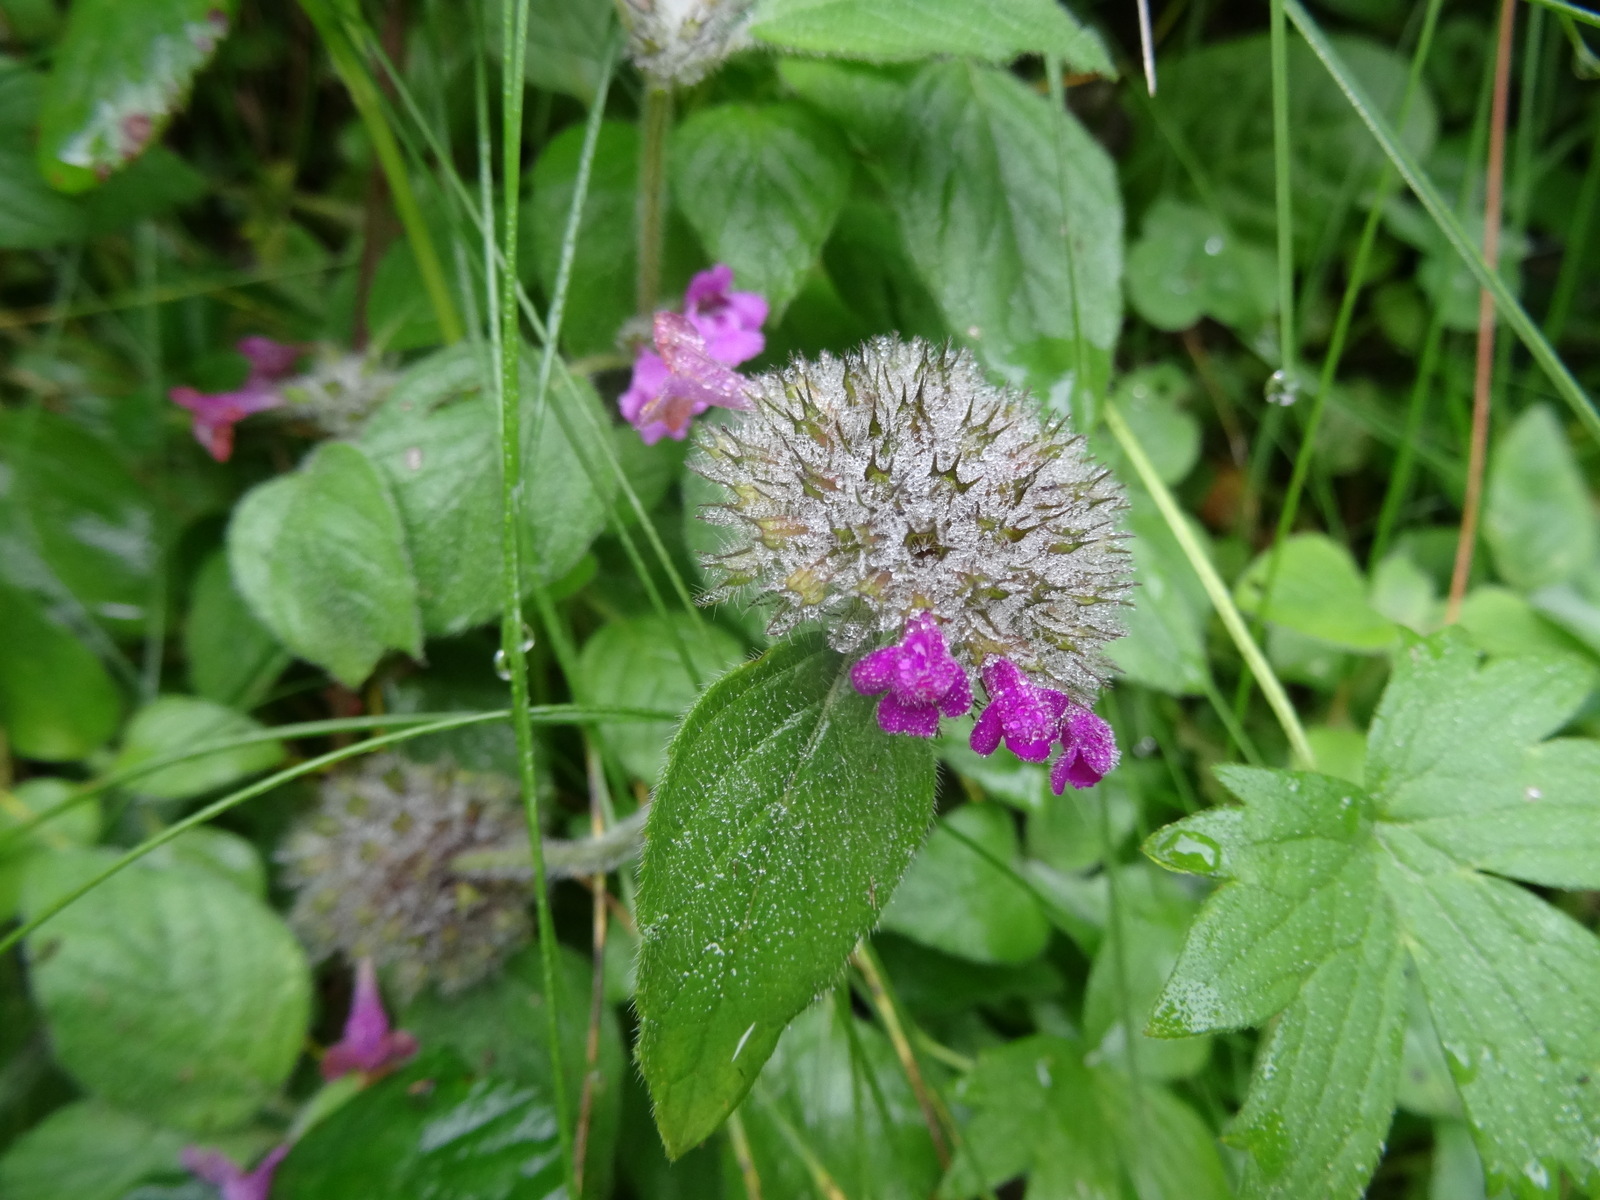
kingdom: Plantae
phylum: Tracheophyta
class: Magnoliopsida
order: Lamiales
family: Lamiaceae
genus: Clinopodium
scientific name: Clinopodium vulgare
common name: Wild basil
